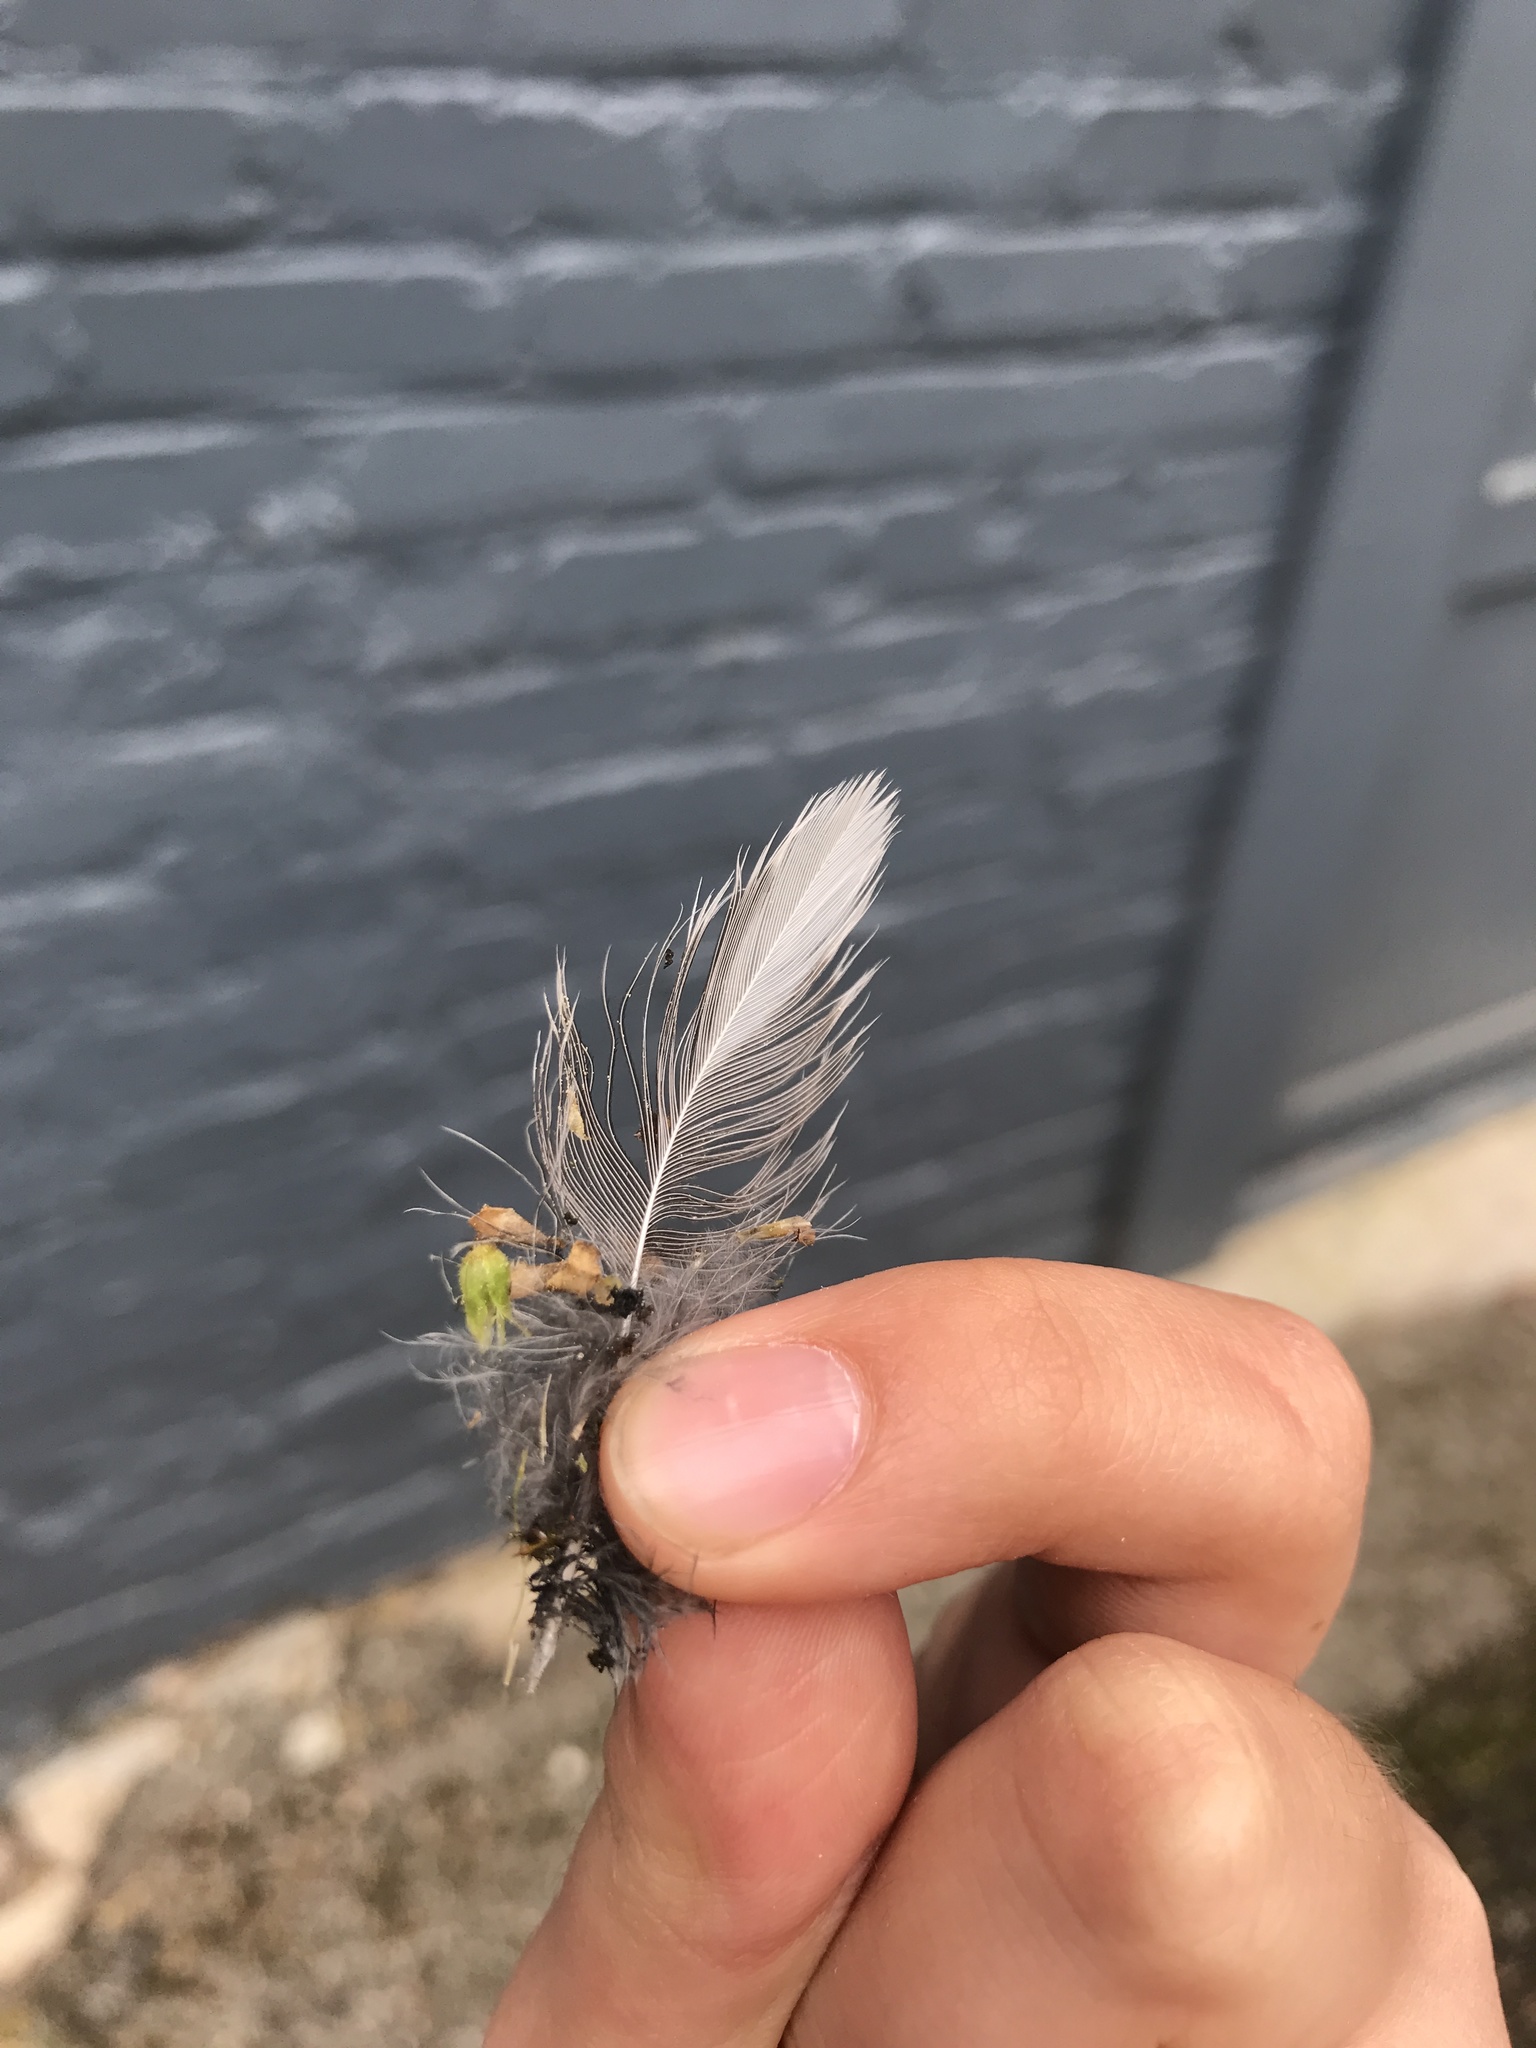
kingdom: Animalia
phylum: Chordata
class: Aves
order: Passeriformes
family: Turdidae
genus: Turdus
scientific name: Turdus migratorius
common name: American robin
